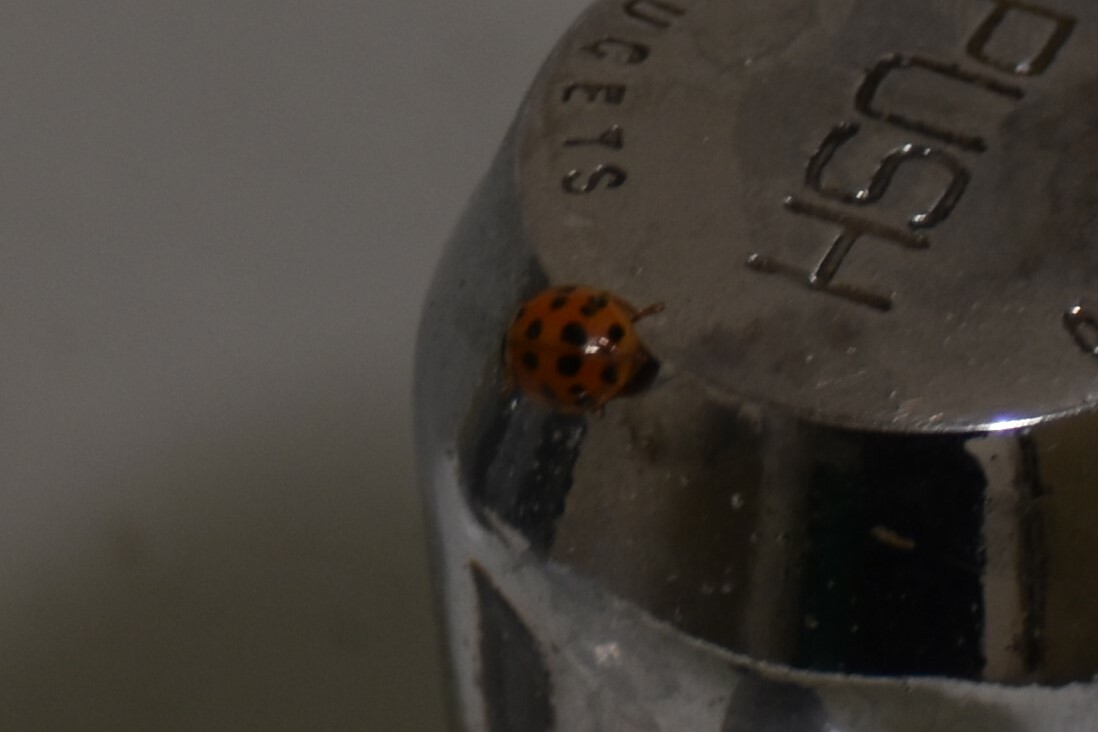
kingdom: Animalia
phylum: Arthropoda
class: Insecta
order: Coleoptera
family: Coccinellidae
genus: Harmonia
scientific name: Harmonia axyridis
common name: Harlequin ladybird
